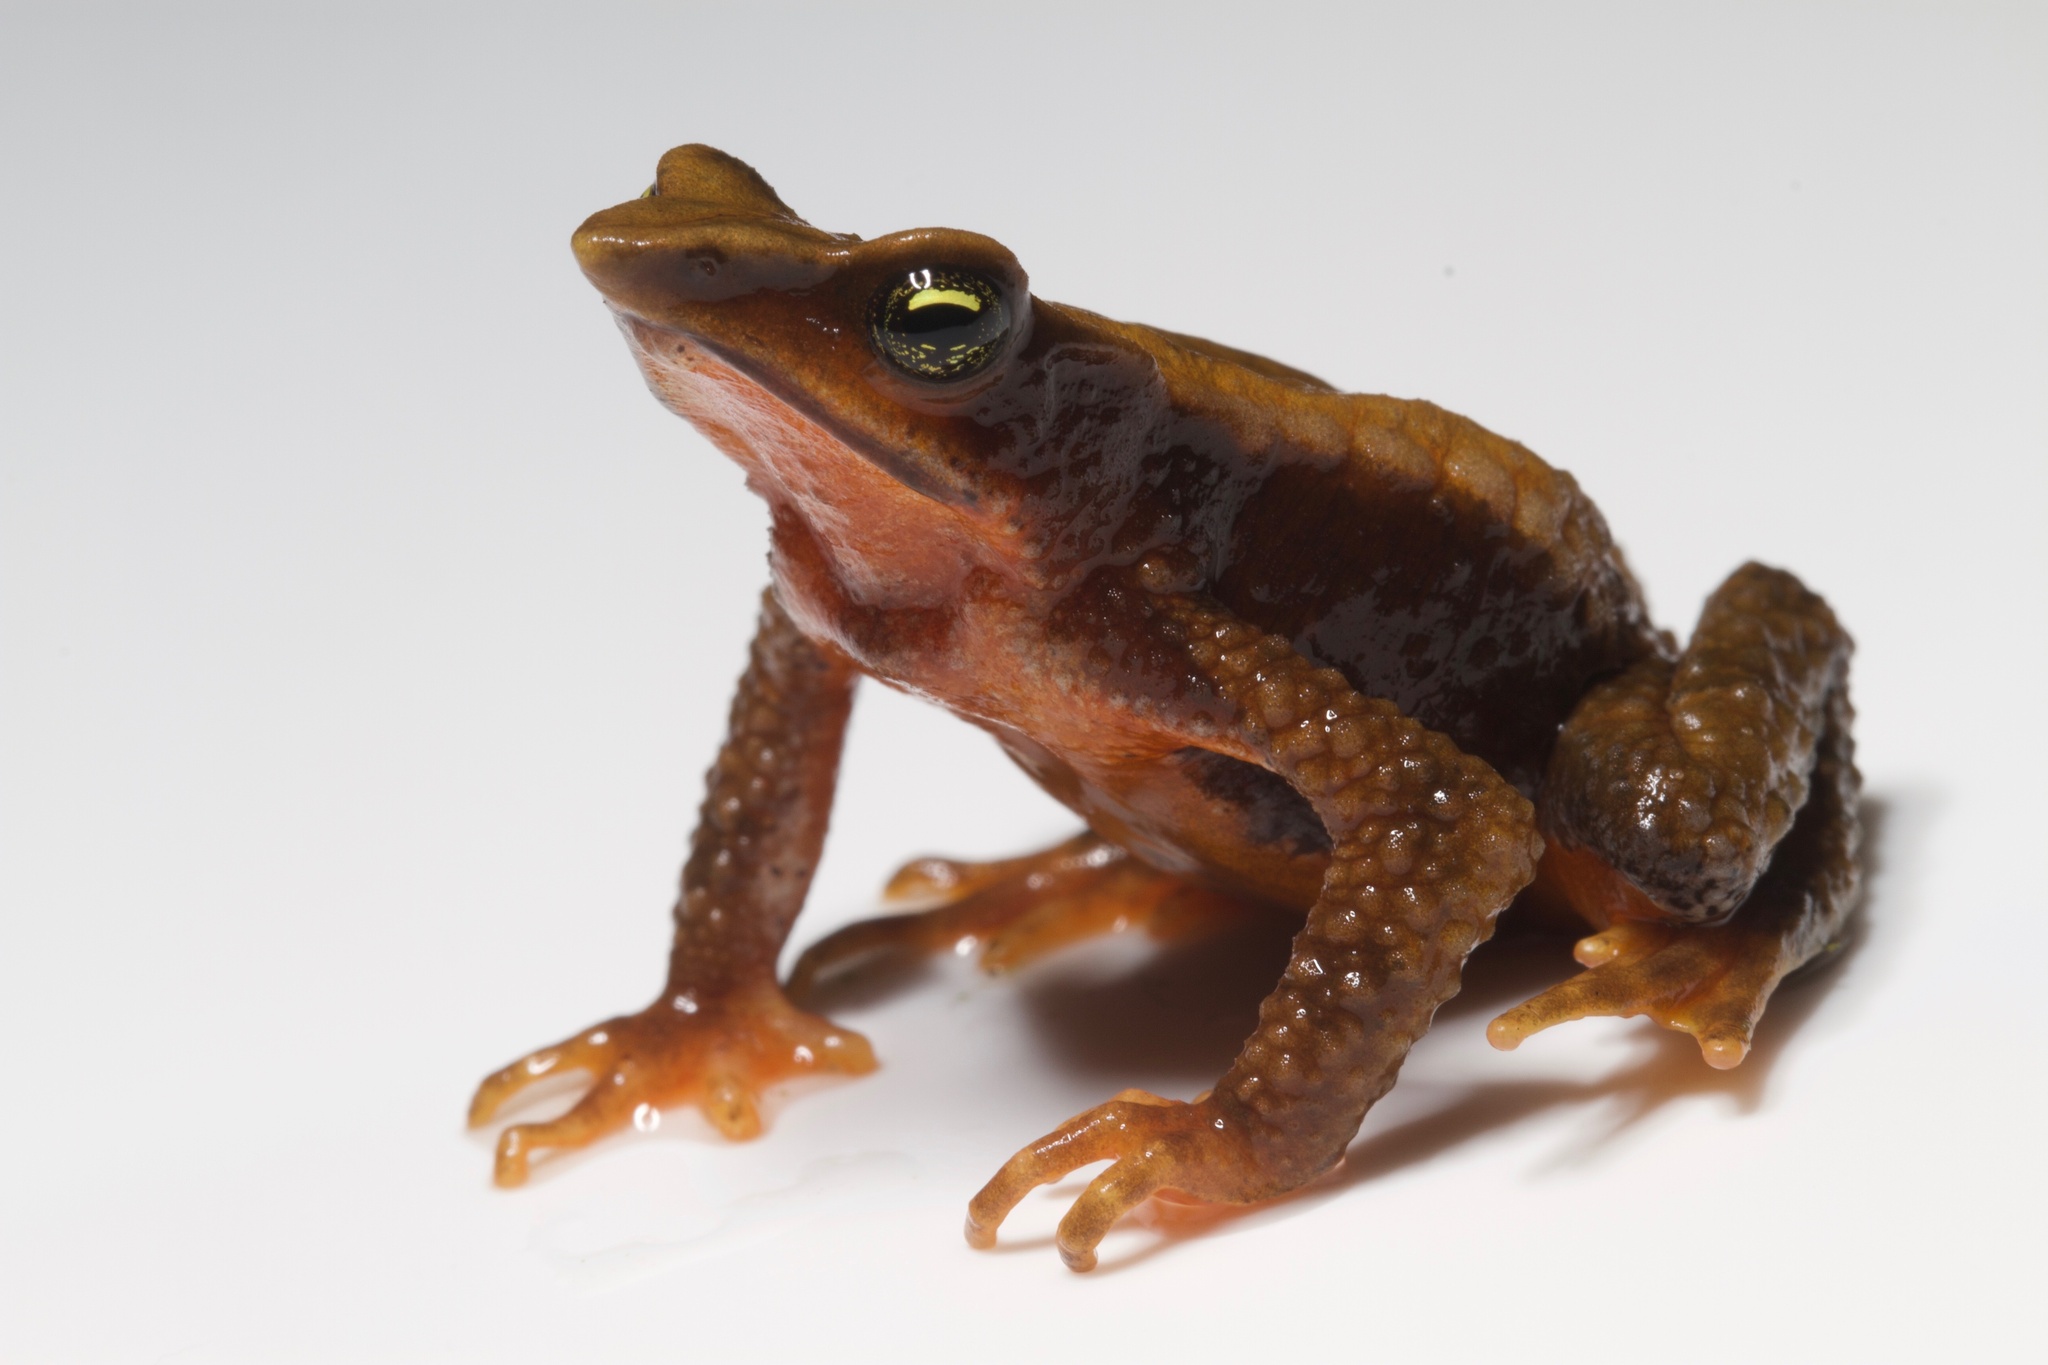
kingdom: Animalia
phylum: Chordata
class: Amphibia
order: Anura
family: Bufonidae
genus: Atelopus
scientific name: Atelopus nahumae
